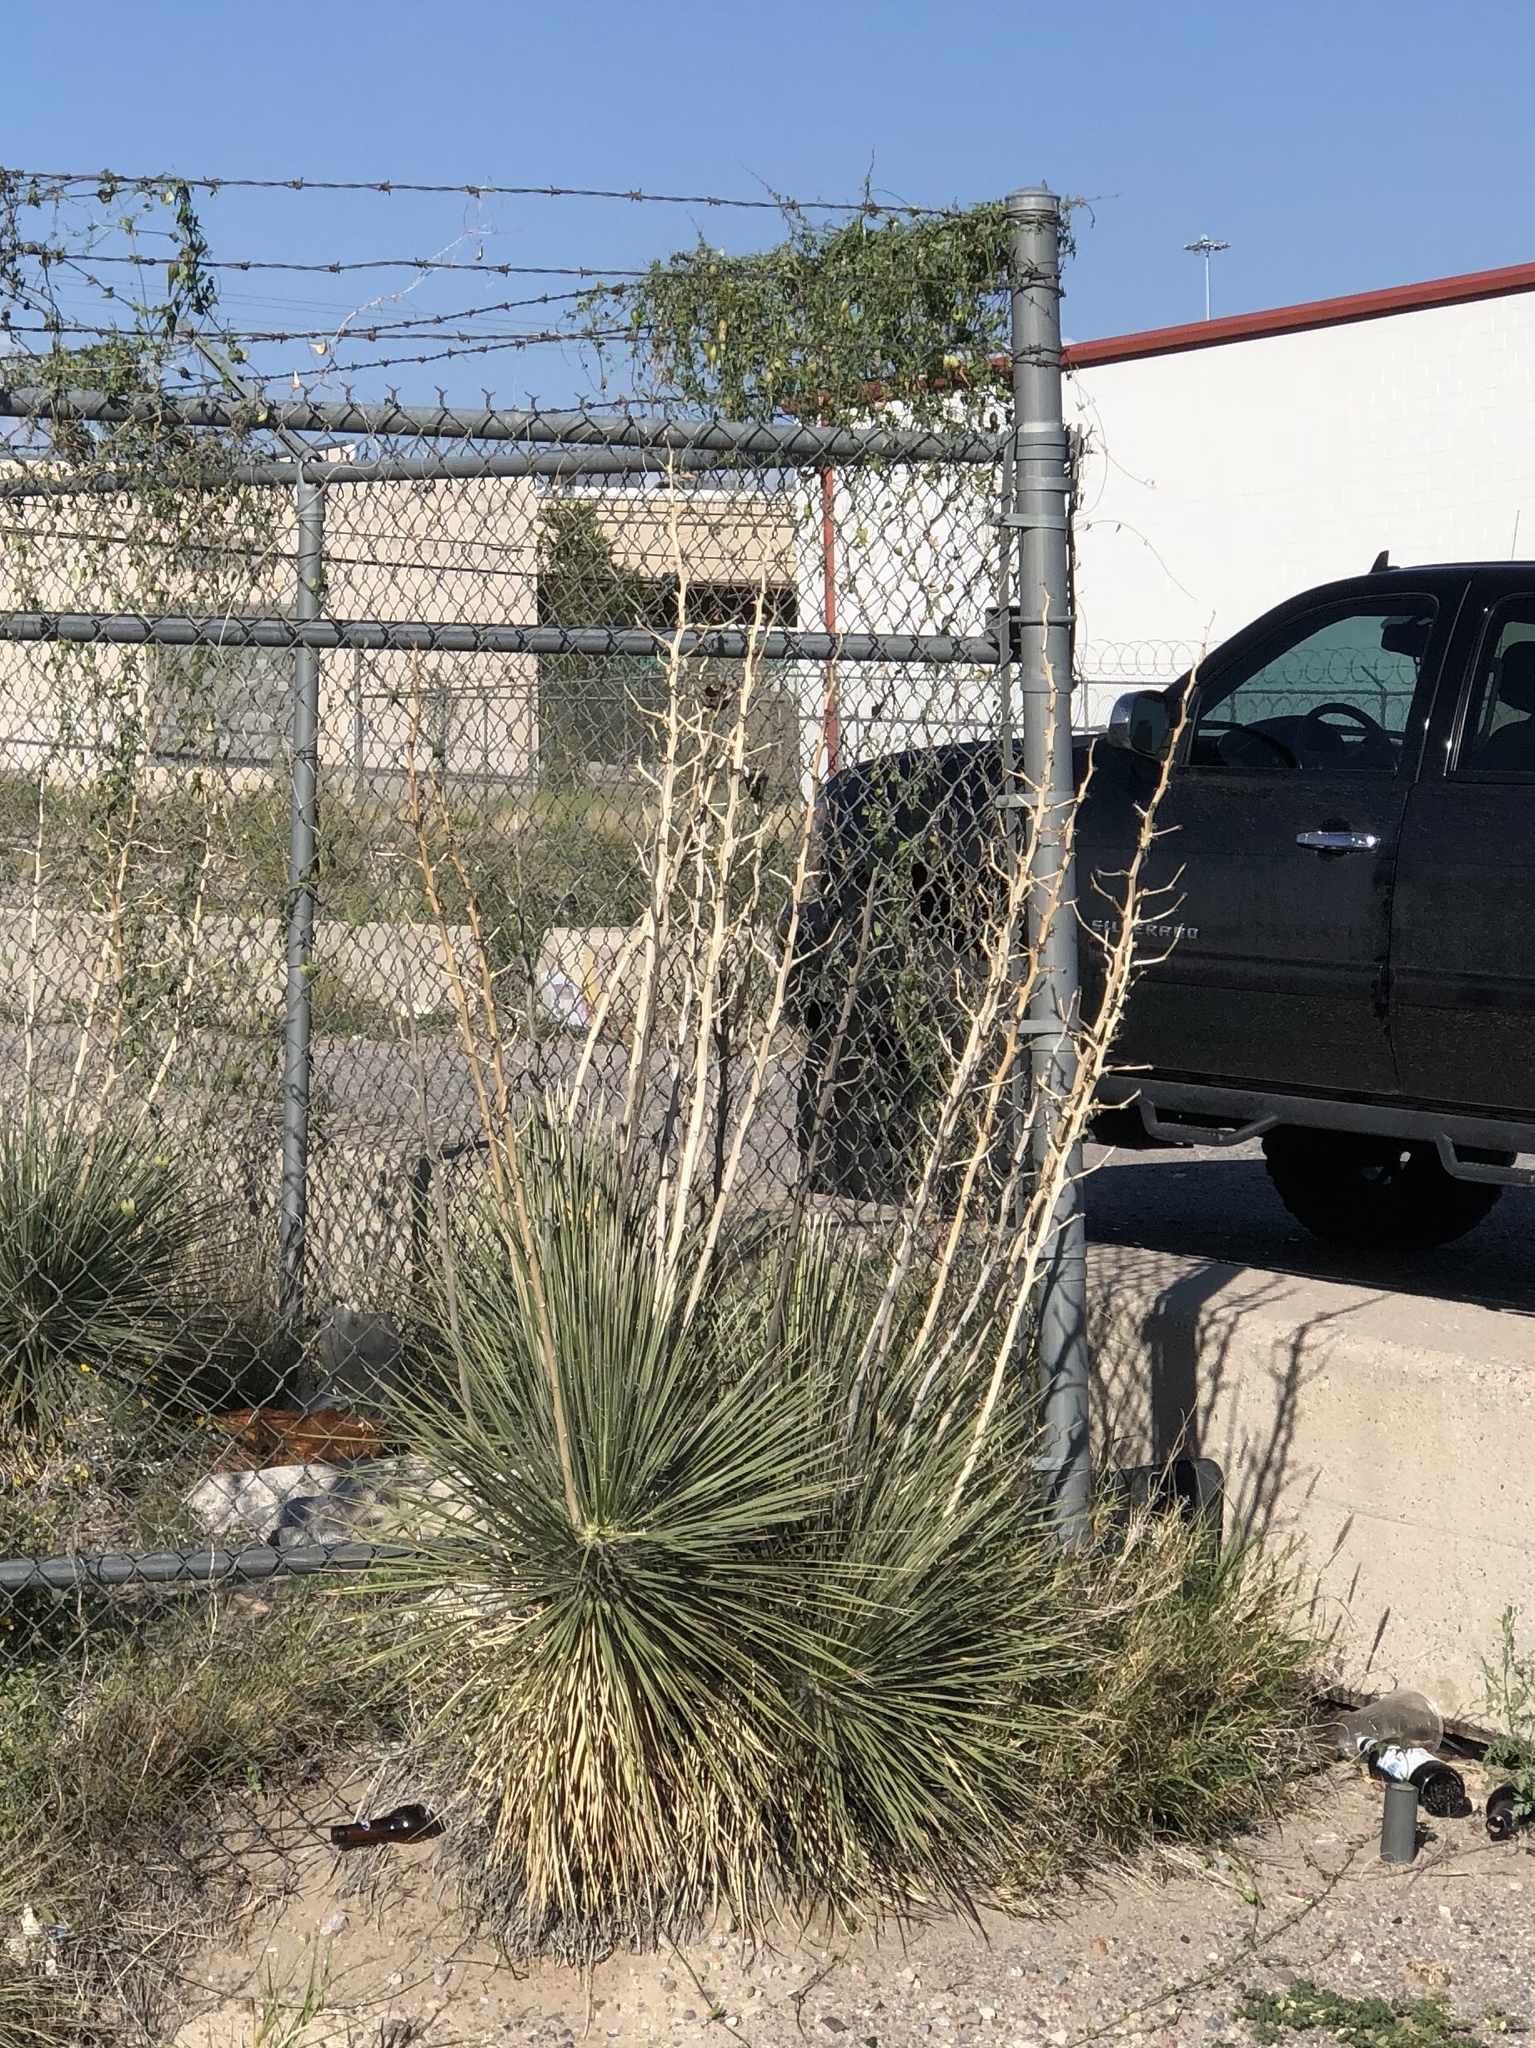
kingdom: Plantae
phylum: Tracheophyta
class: Liliopsida
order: Asparagales
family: Asparagaceae
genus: Yucca
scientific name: Yucca elata
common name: Palmella
